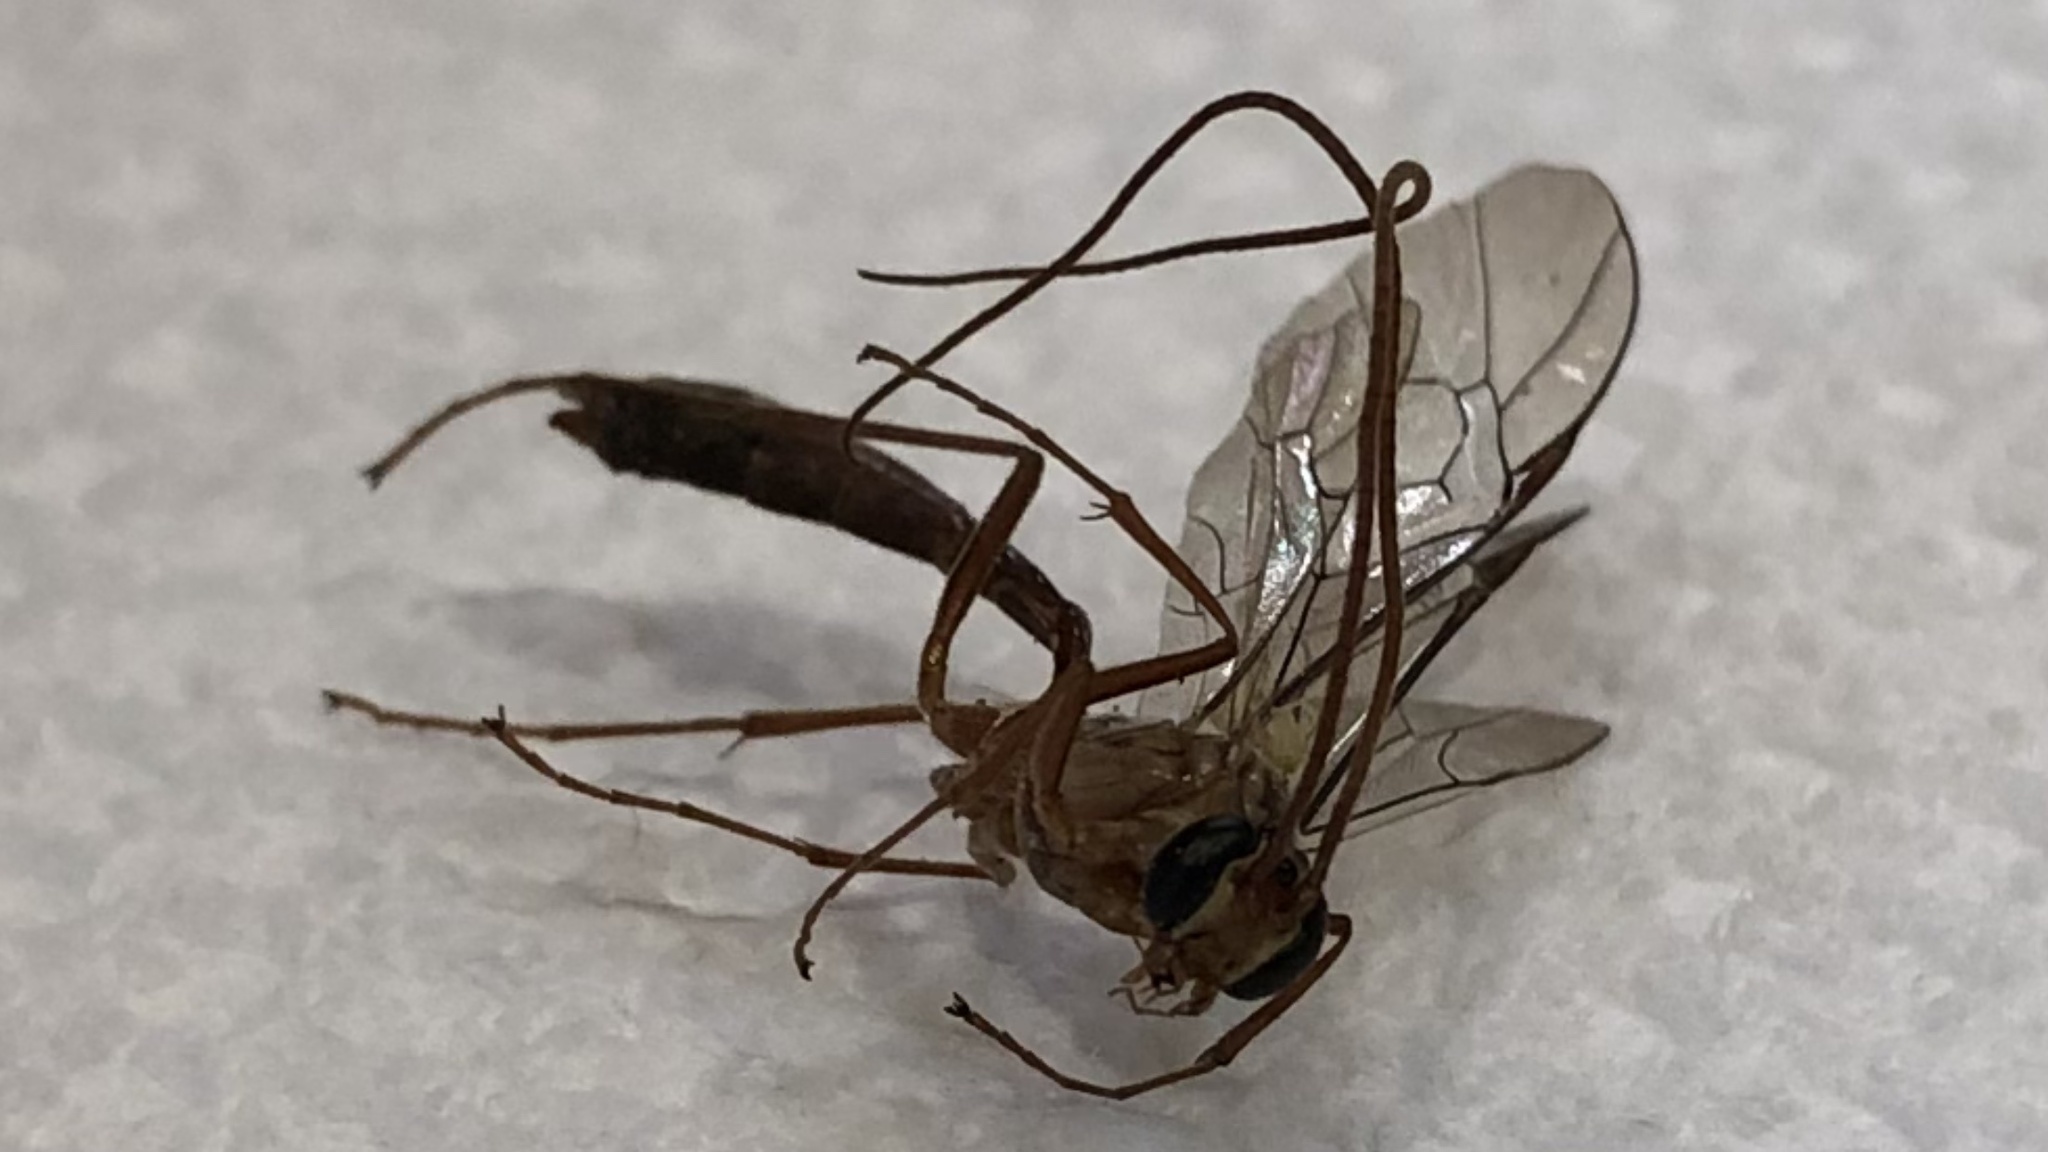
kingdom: Animalia
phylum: Arthropoda
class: Insecta
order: Hymenoptera
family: Ichneumonidae
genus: Ophion
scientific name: Ophion
